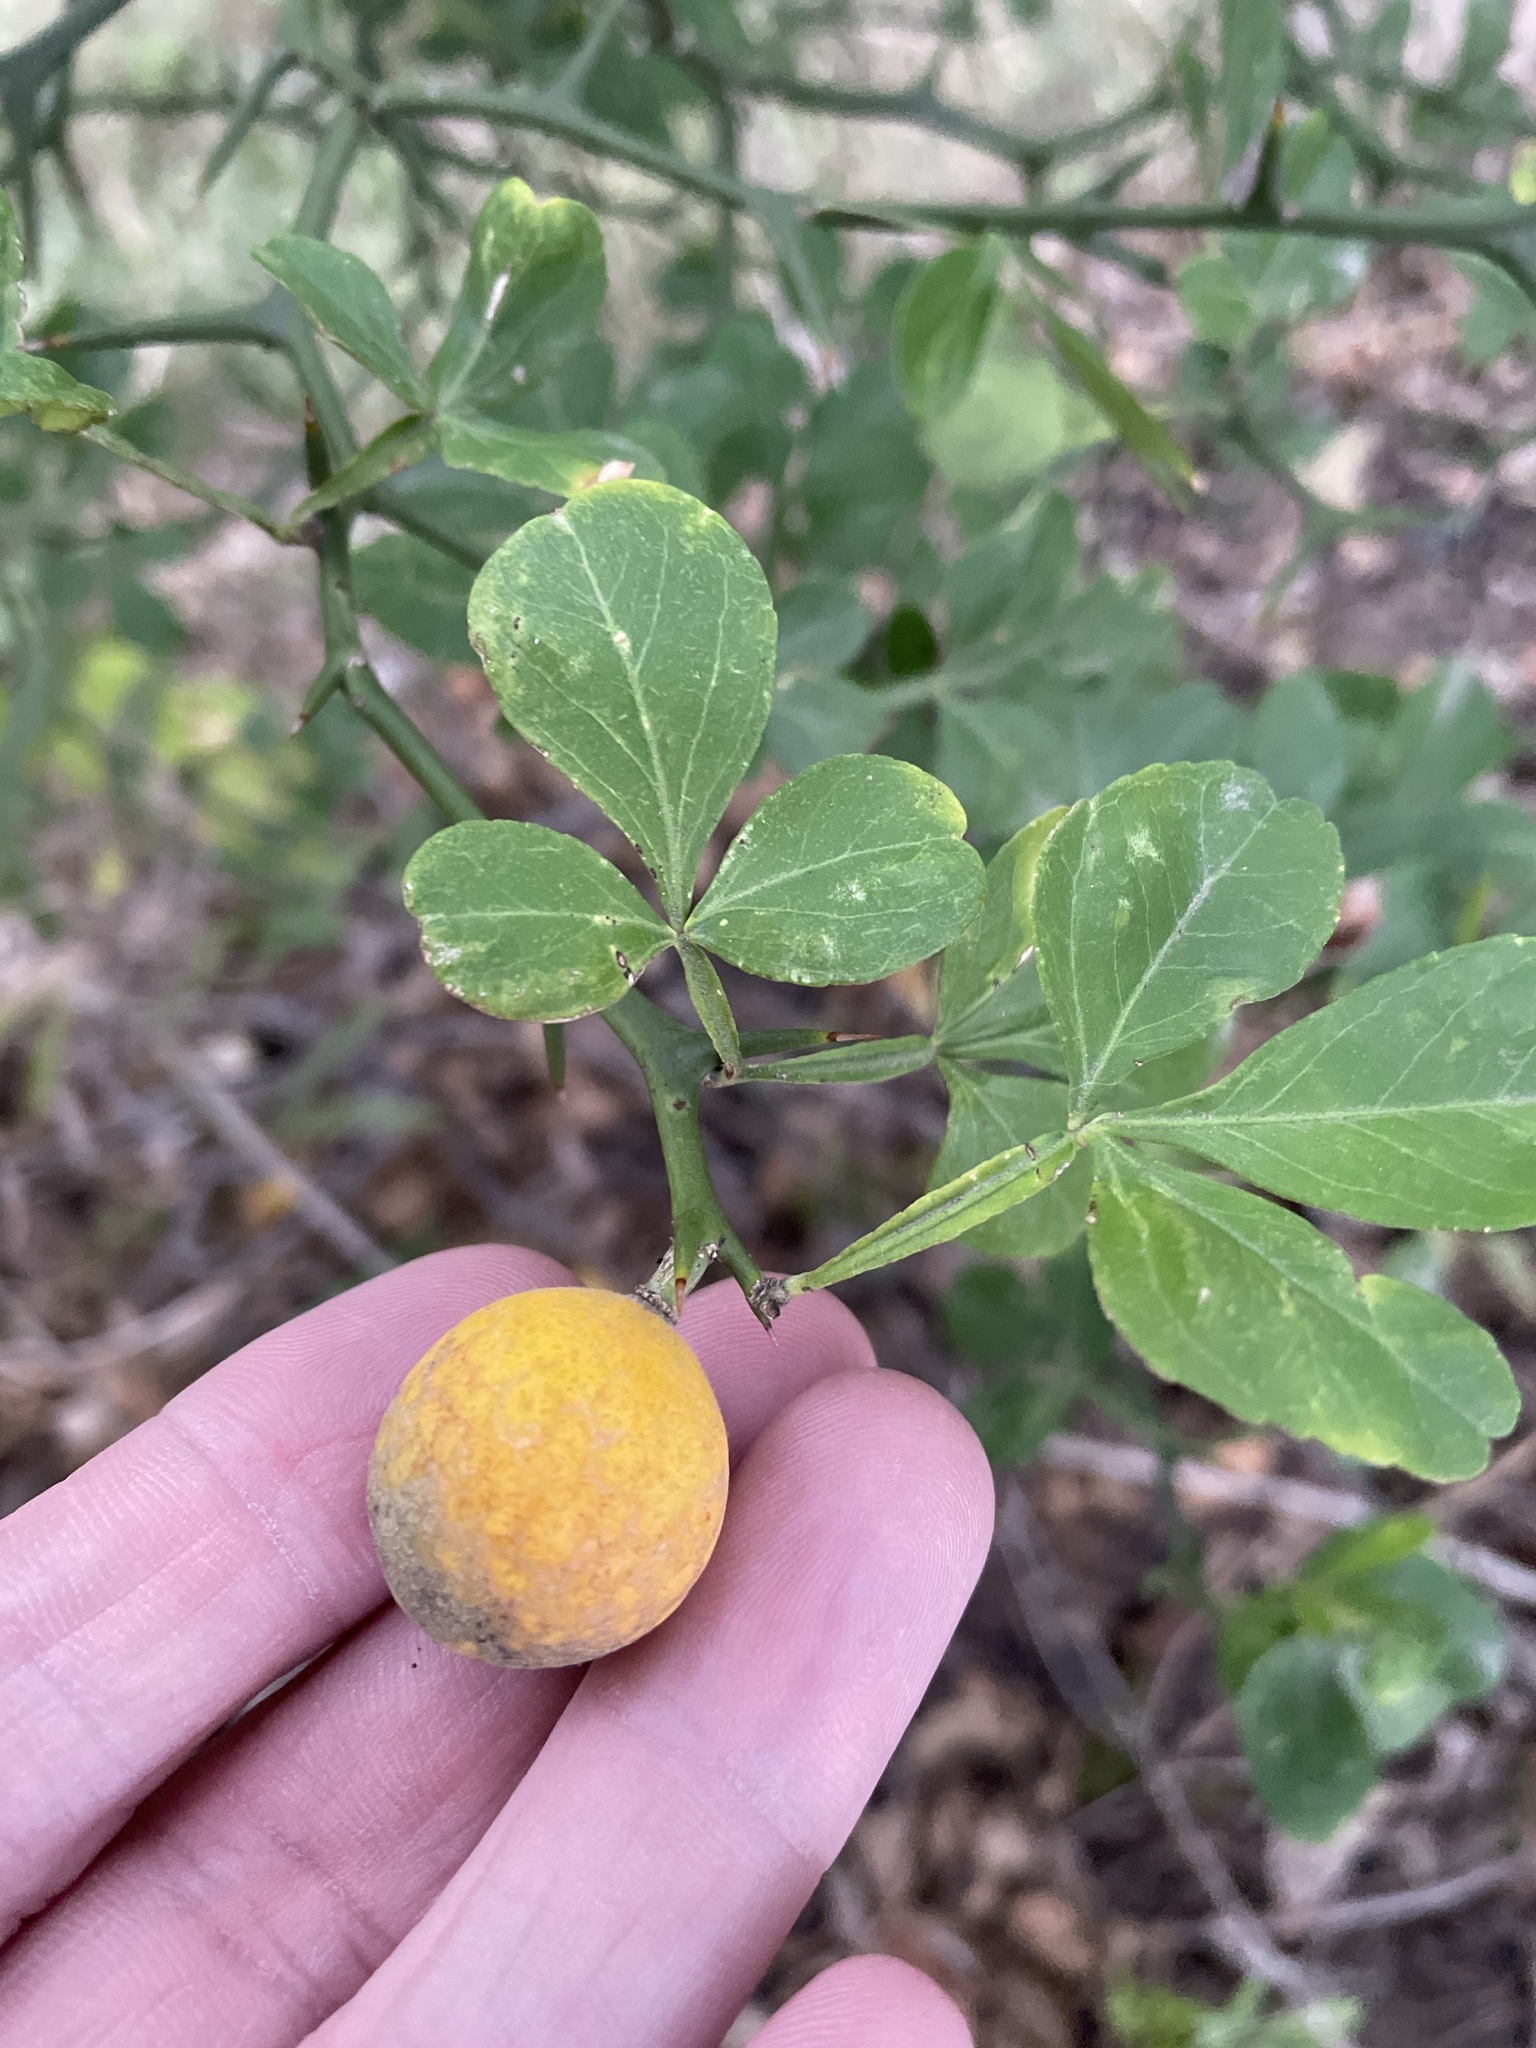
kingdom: Plantae
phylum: Tracheophyta
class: Magnoliopsida
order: Sapindales
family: Rutaceae
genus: Citrus
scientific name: Citrus trifoliata
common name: Japanese bitter-orange
